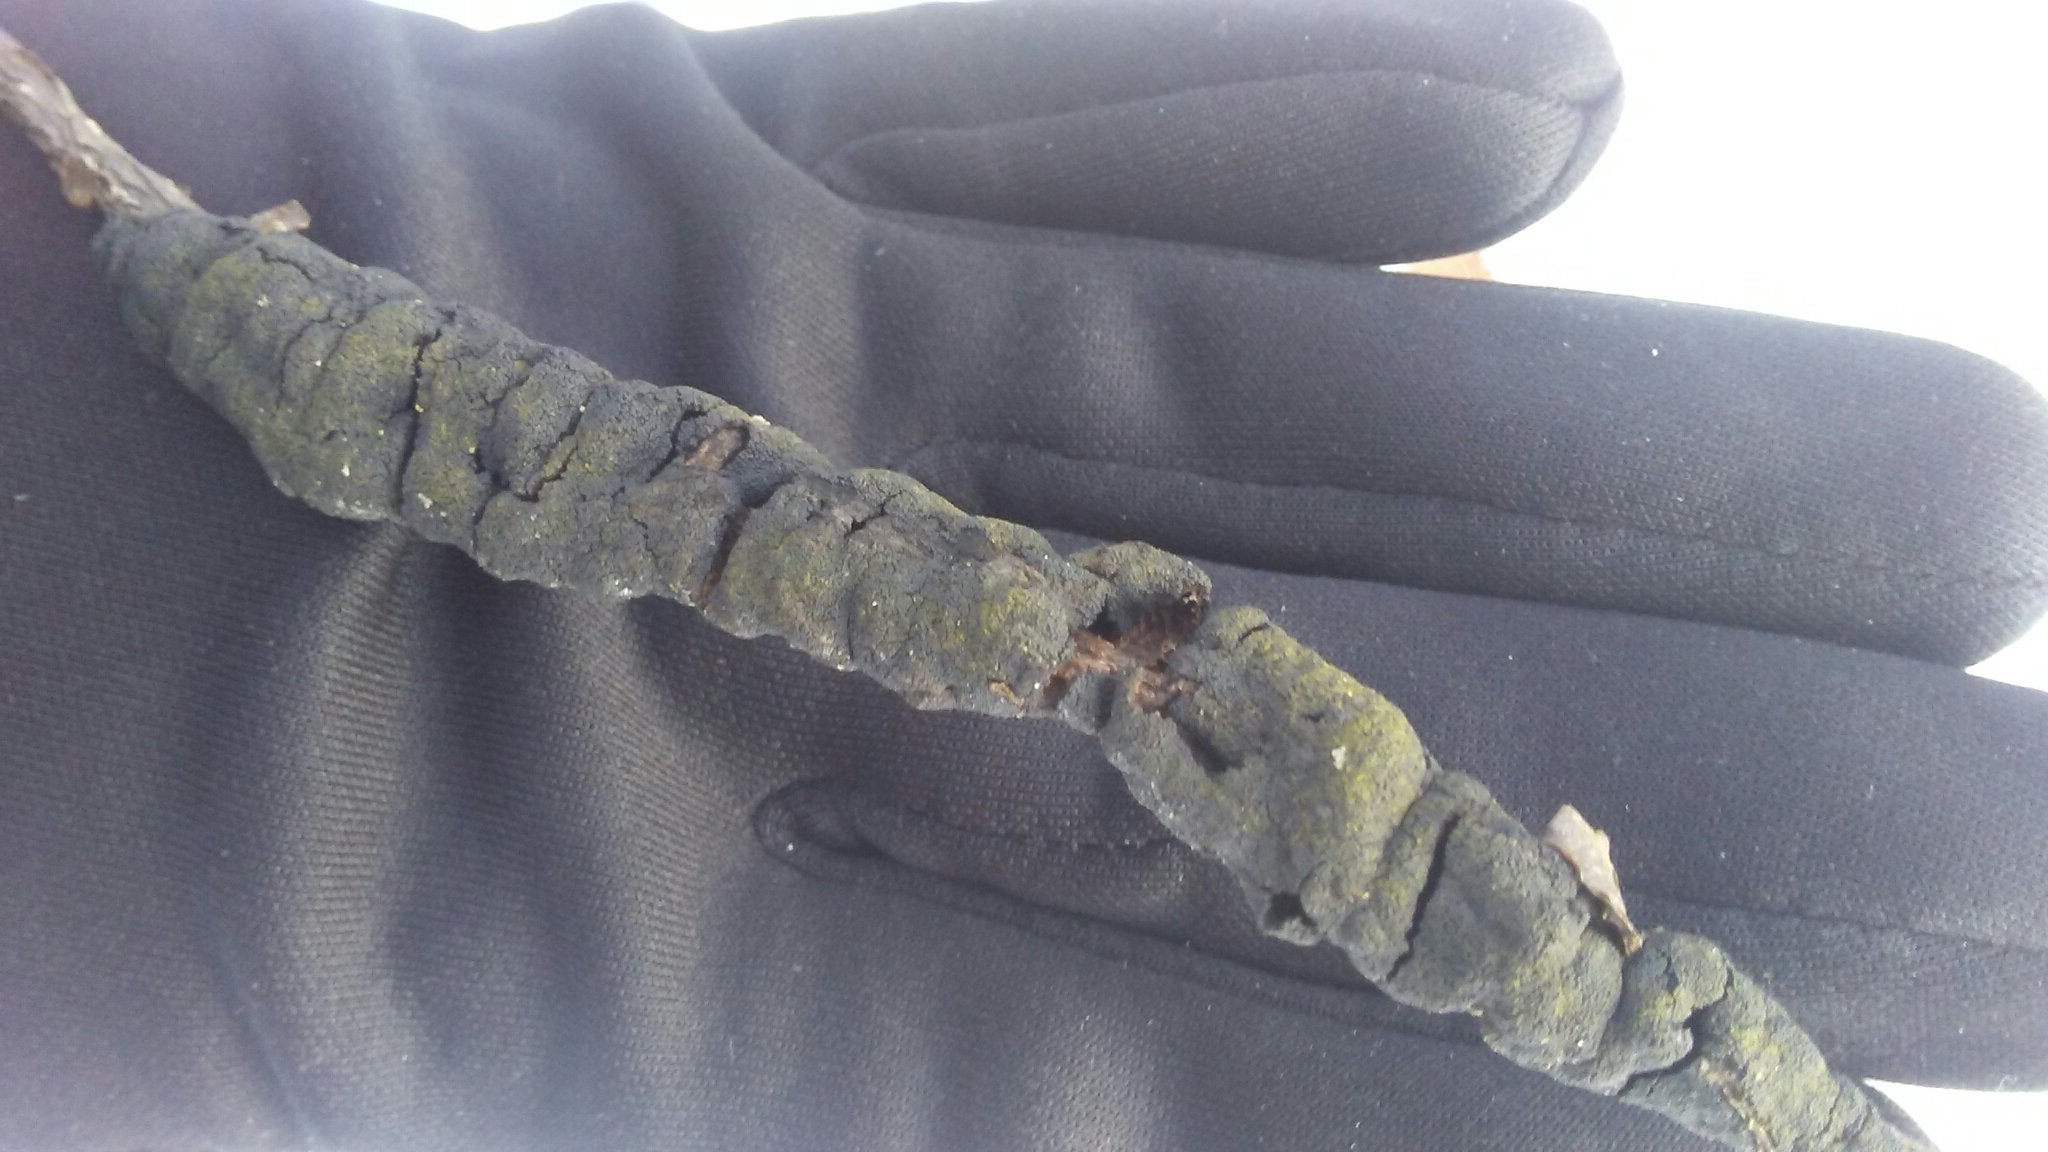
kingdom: Fungi
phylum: Ascomycota
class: Dothideomycetes
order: Venturiales
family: Venturiaceae
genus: Apiosporina
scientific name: Apiosporina morbosa
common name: Black knot
